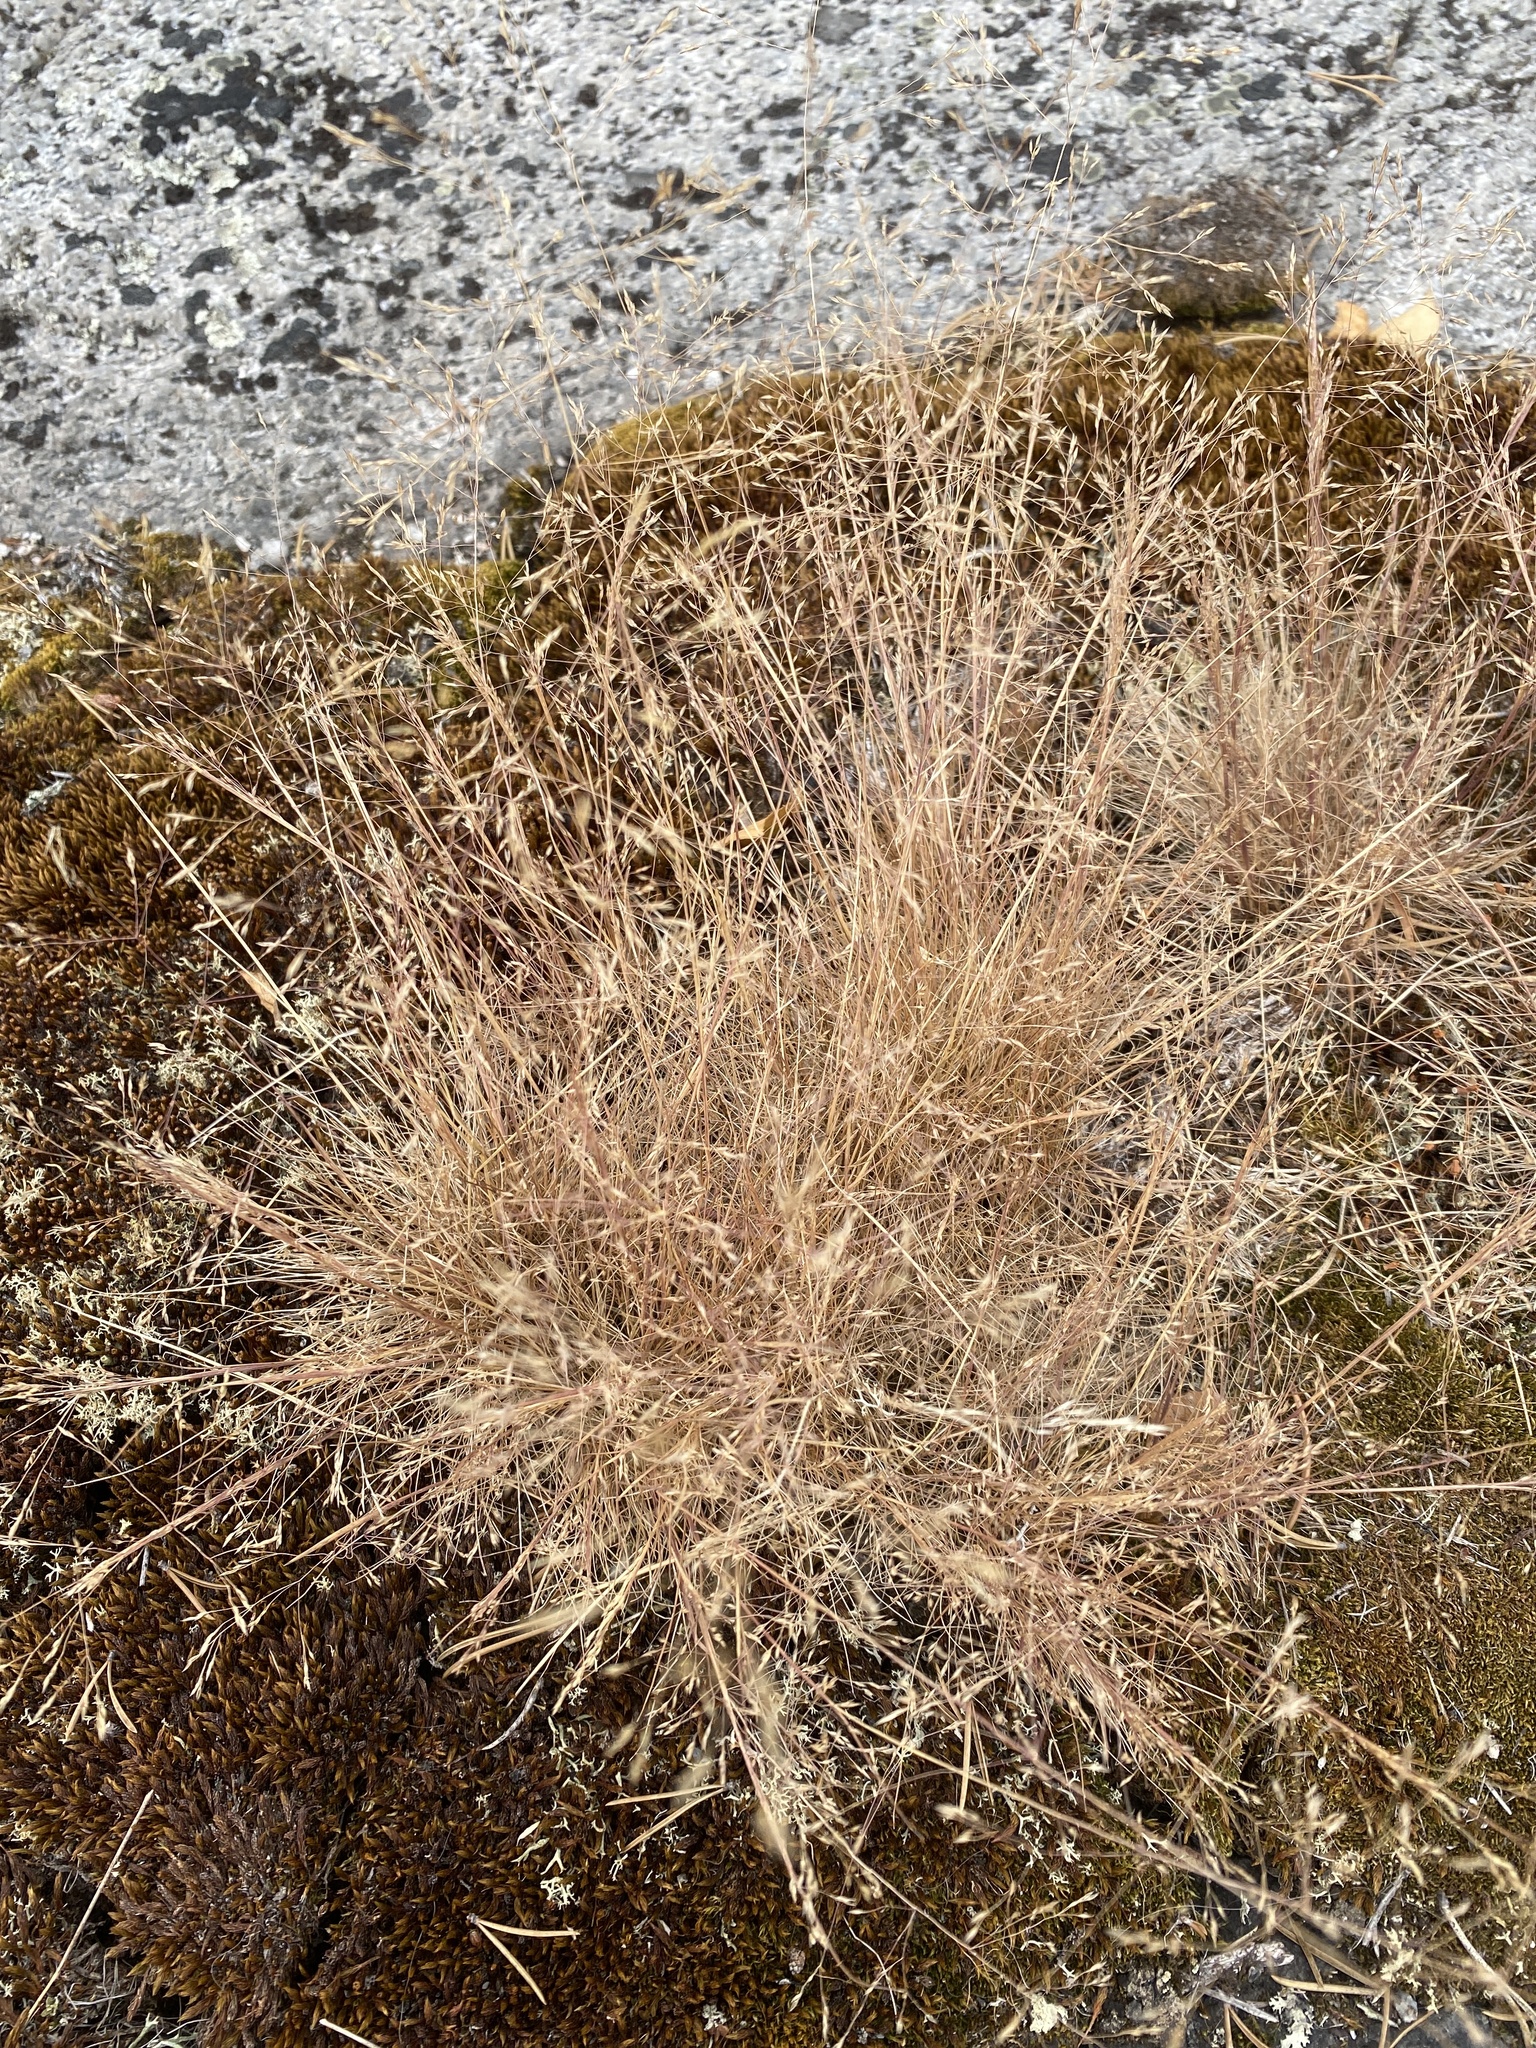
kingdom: Plantae
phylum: Tracheophyta
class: Liliopsida
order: Poales
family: Poaceae
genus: Agrostis
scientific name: Agrostis scabra
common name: Rough bent
